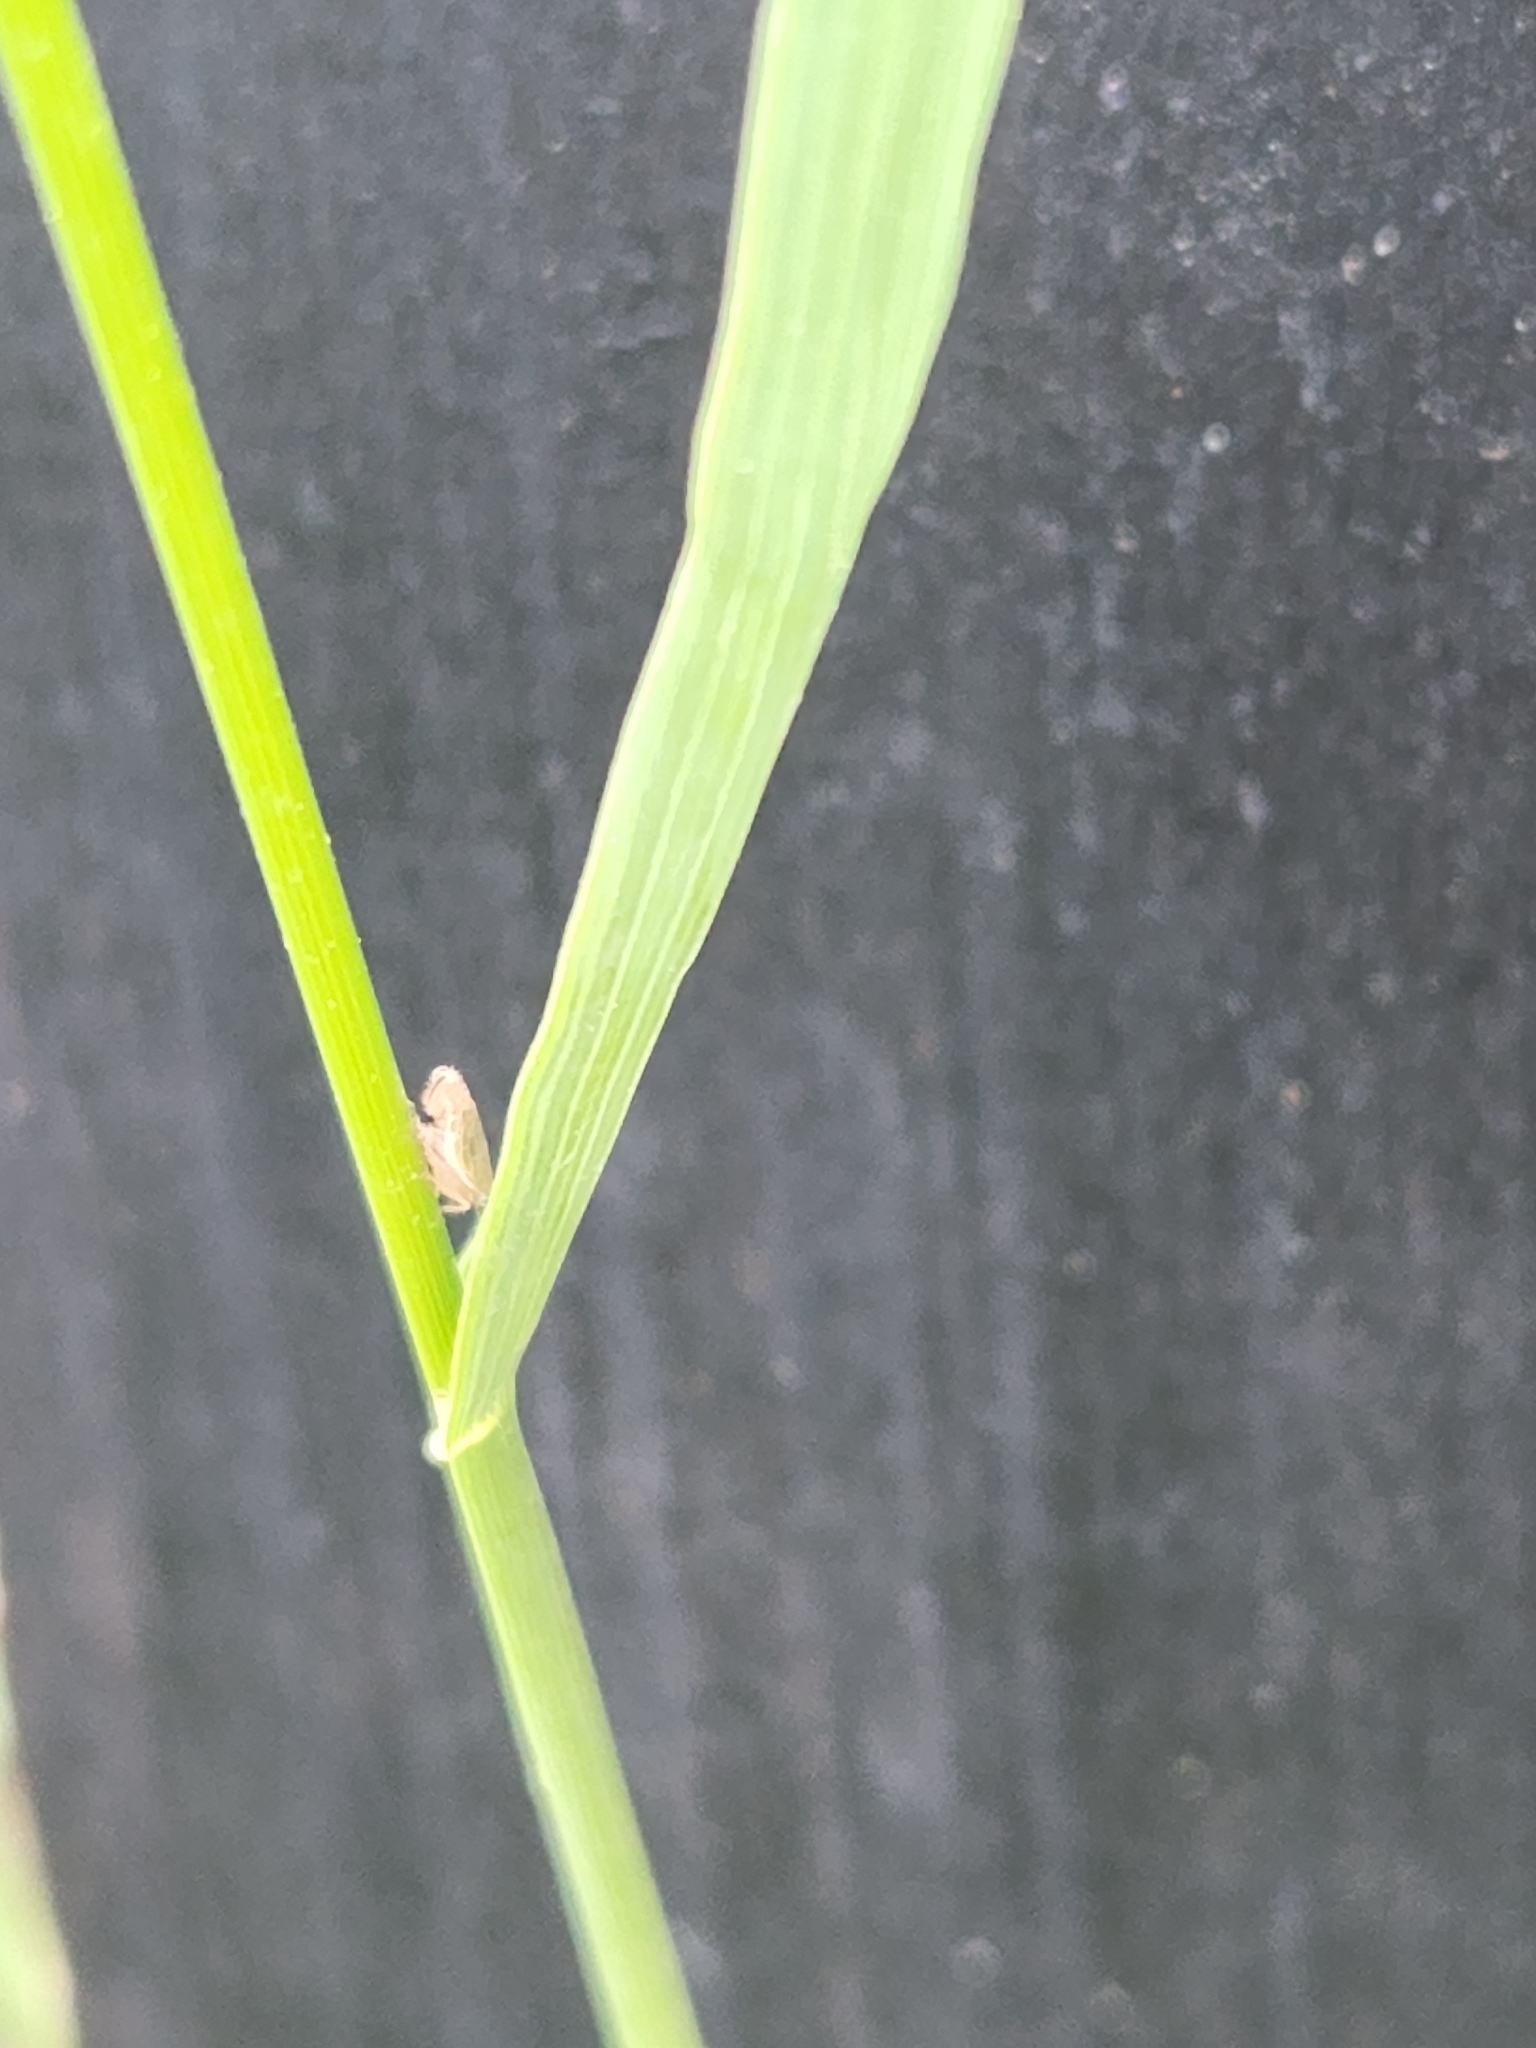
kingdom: Plantae
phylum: Tracheophyta
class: Liliopsida
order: Poales
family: Poaceae
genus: Bromus
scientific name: Bromus inermis
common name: Smooth brome
